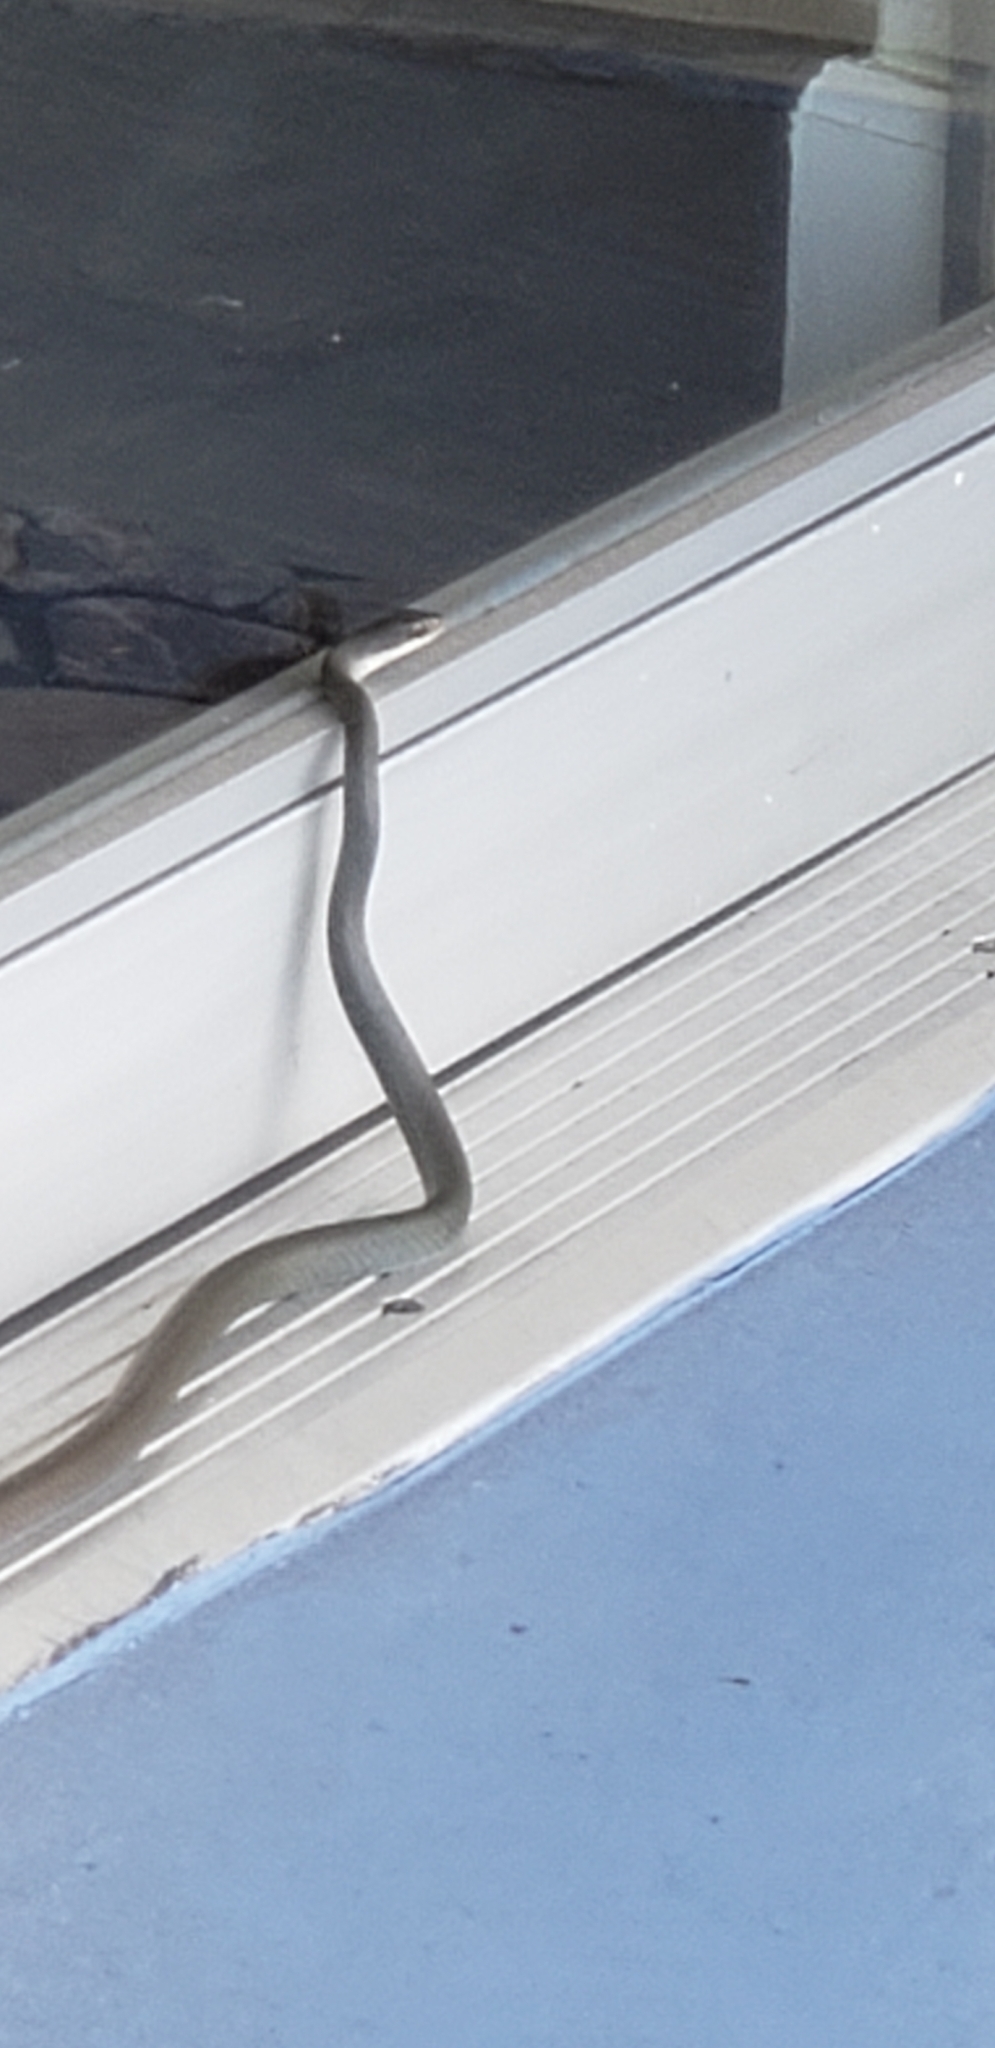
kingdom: Animalia
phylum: Chordata
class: Squamata
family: Colubridae
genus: Coluber
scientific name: Coluber constrictor
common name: Eastern racer
